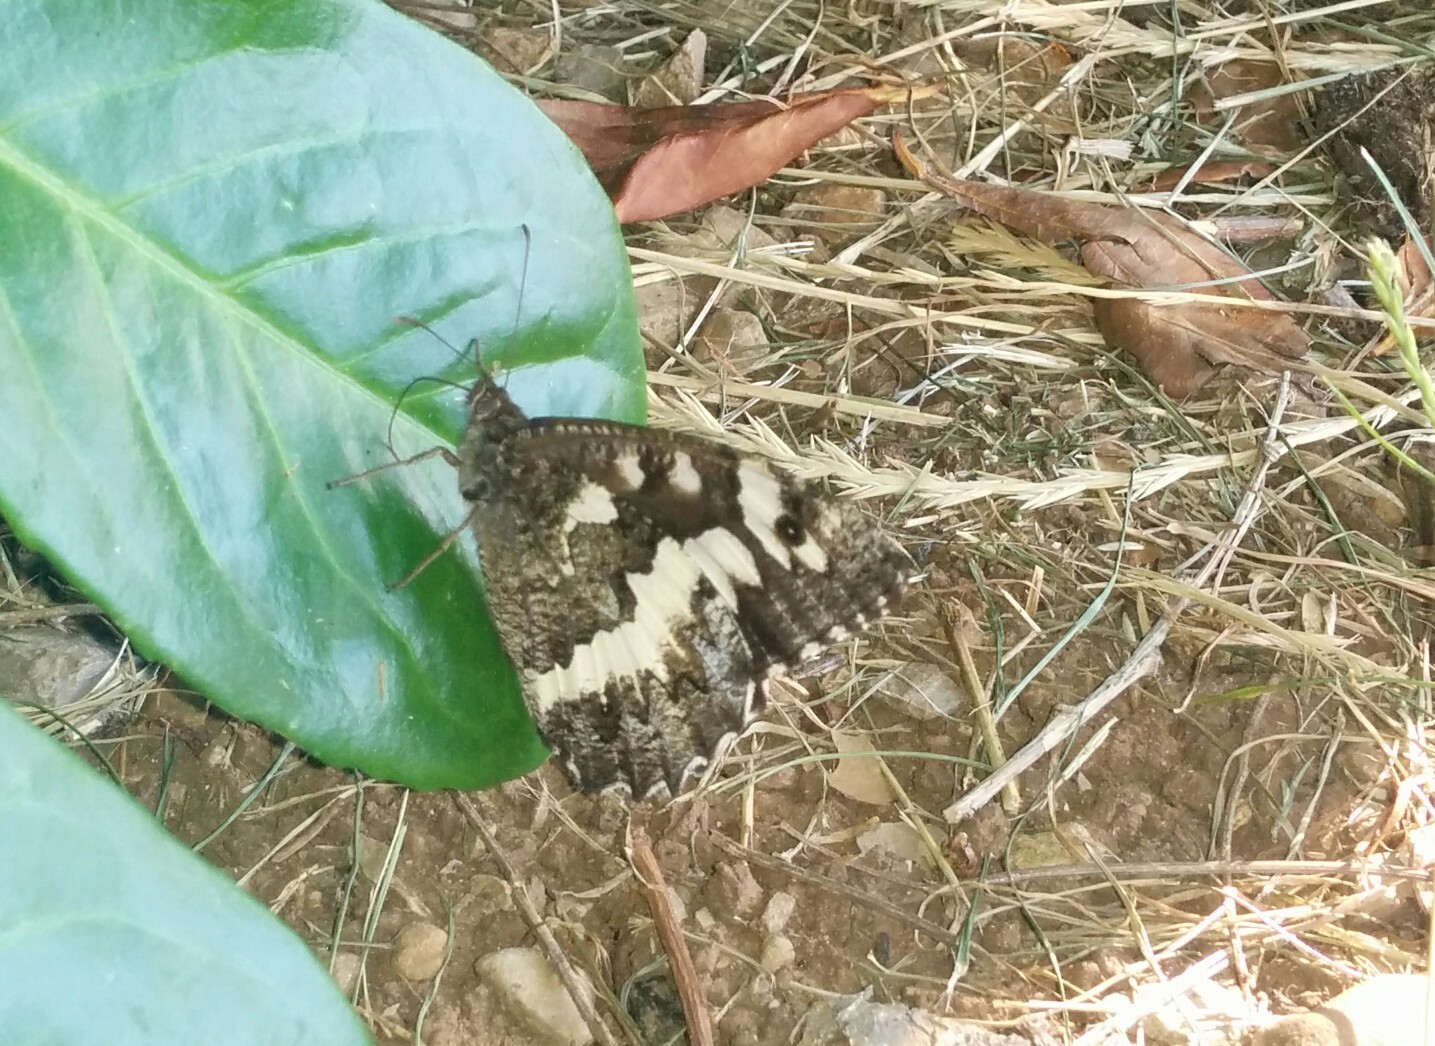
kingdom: Animalia
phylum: Arthropoda
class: Insecta
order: Lepidoptera
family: Lycaenidae
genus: Loweia
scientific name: Loweia tityrus
